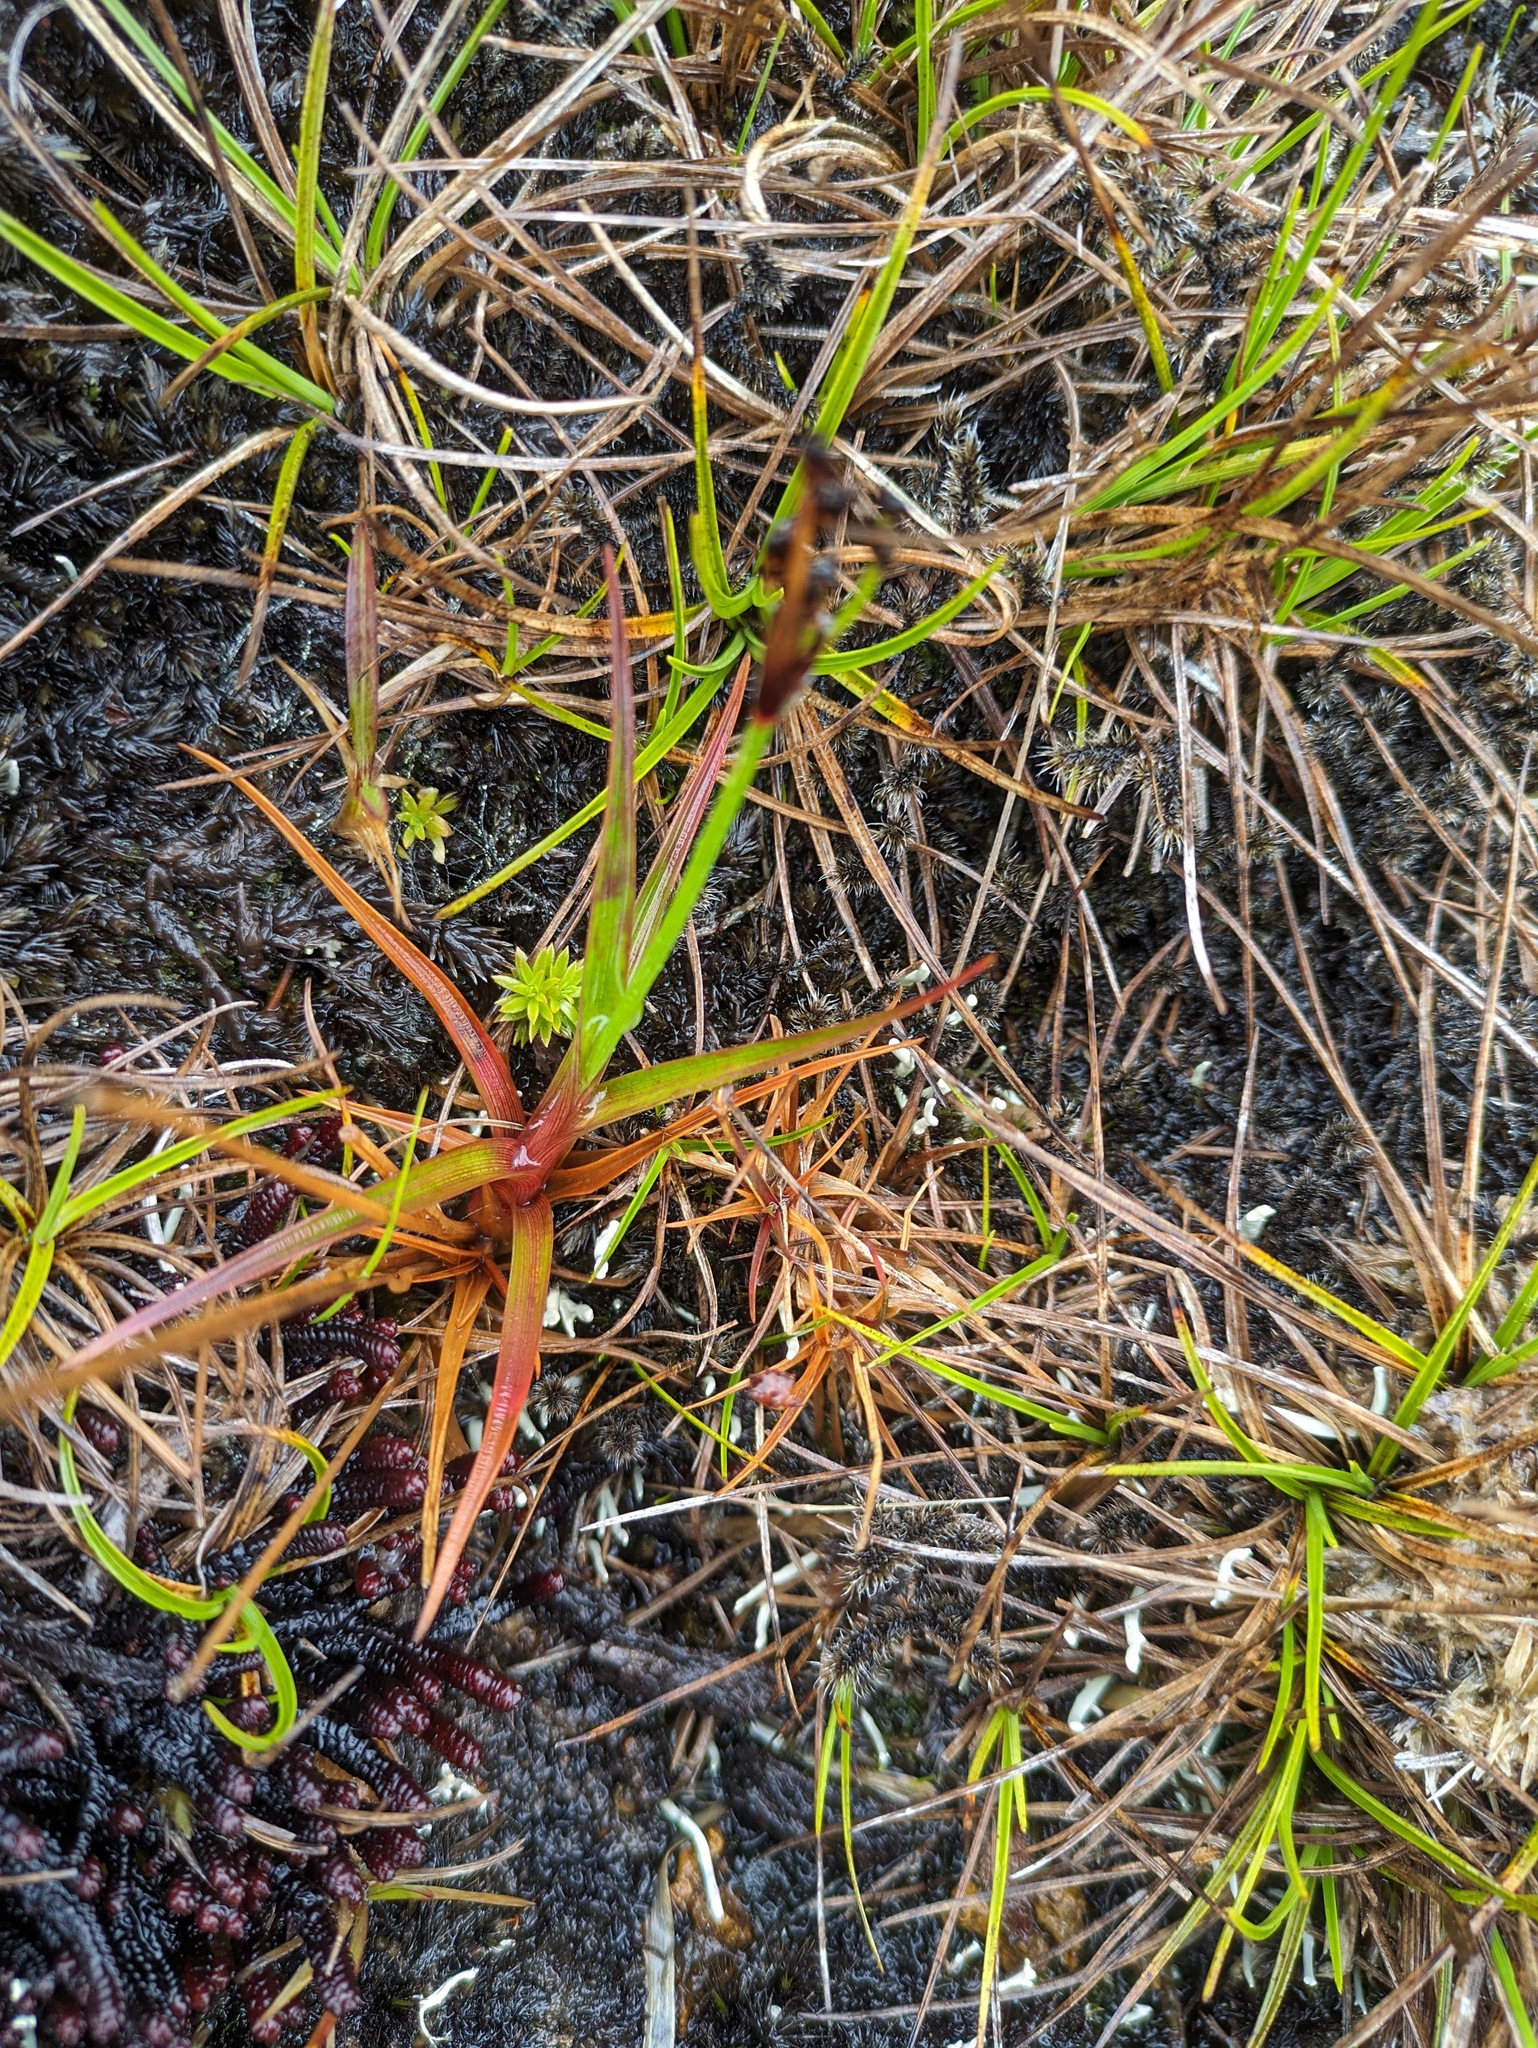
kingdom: Plantae
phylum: Tracheophyta
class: Liliopsida
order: Poales
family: Juncaceae
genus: Juncus
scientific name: Juncus planifolius
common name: Broadleaf rush
